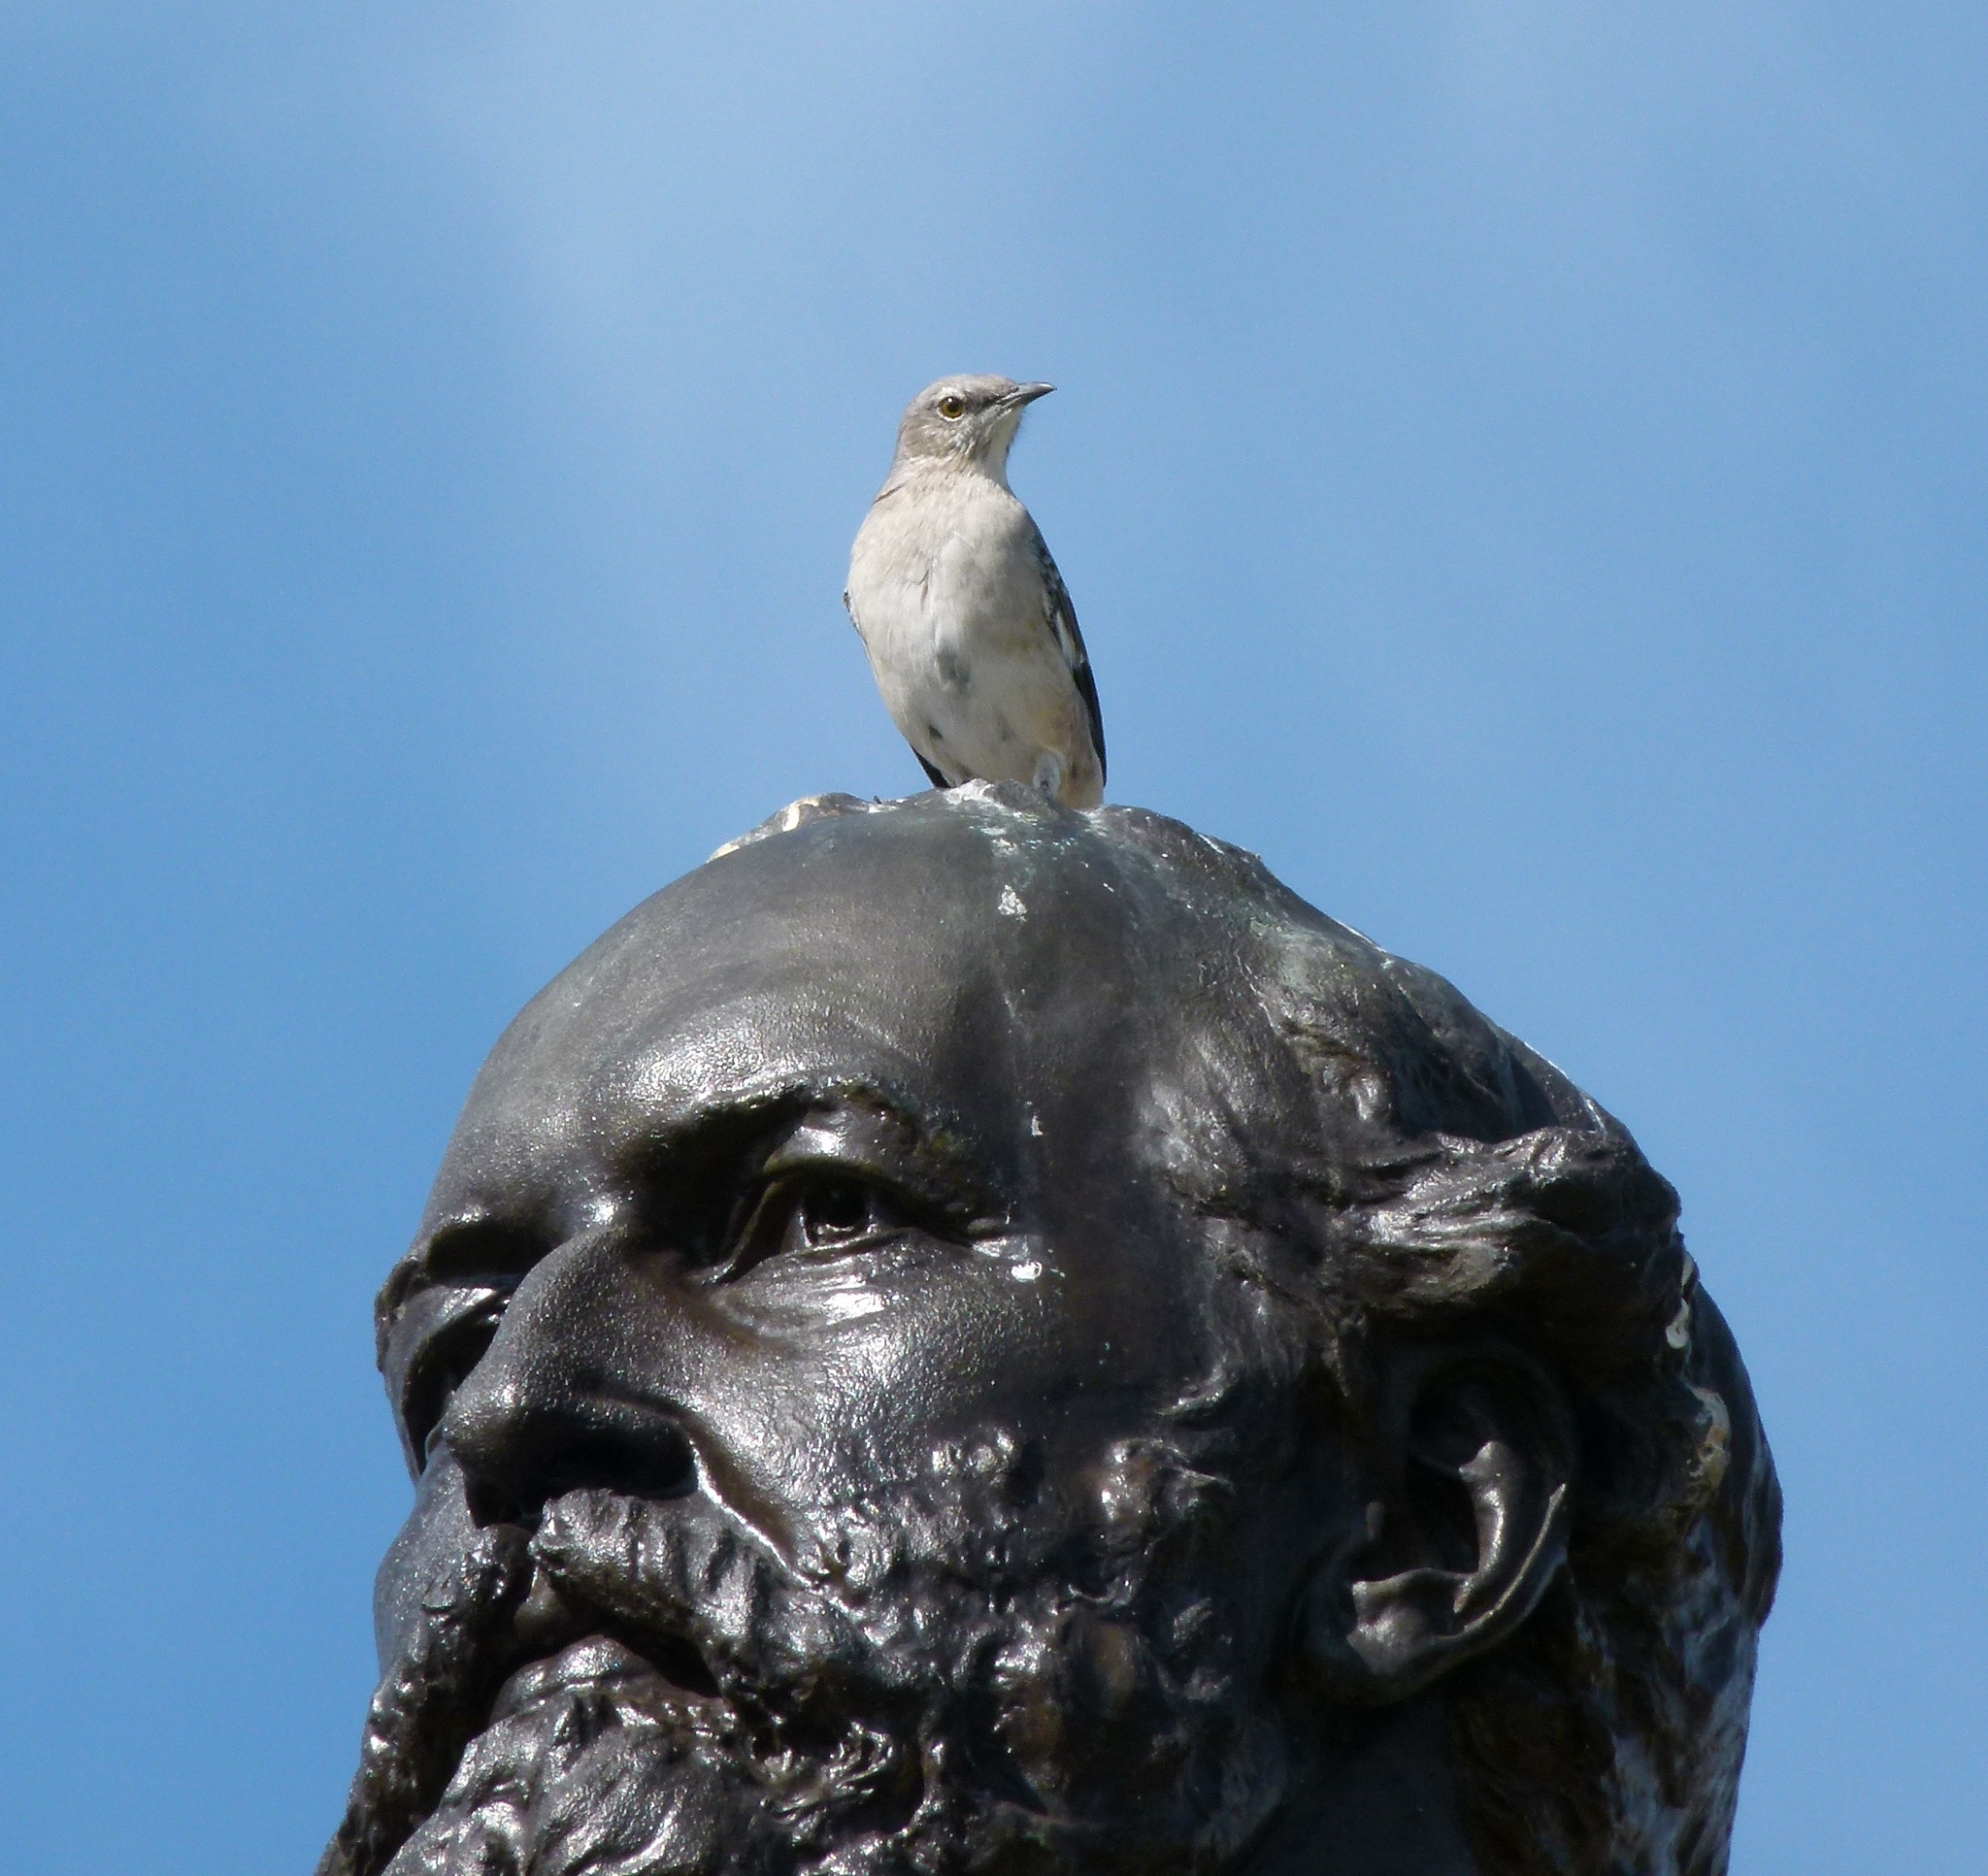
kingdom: Animalia
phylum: Chordata
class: Aves
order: Passeriformes
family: Mimidae
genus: Mimus
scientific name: Mimus polyglottos
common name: Northern mockingbird
